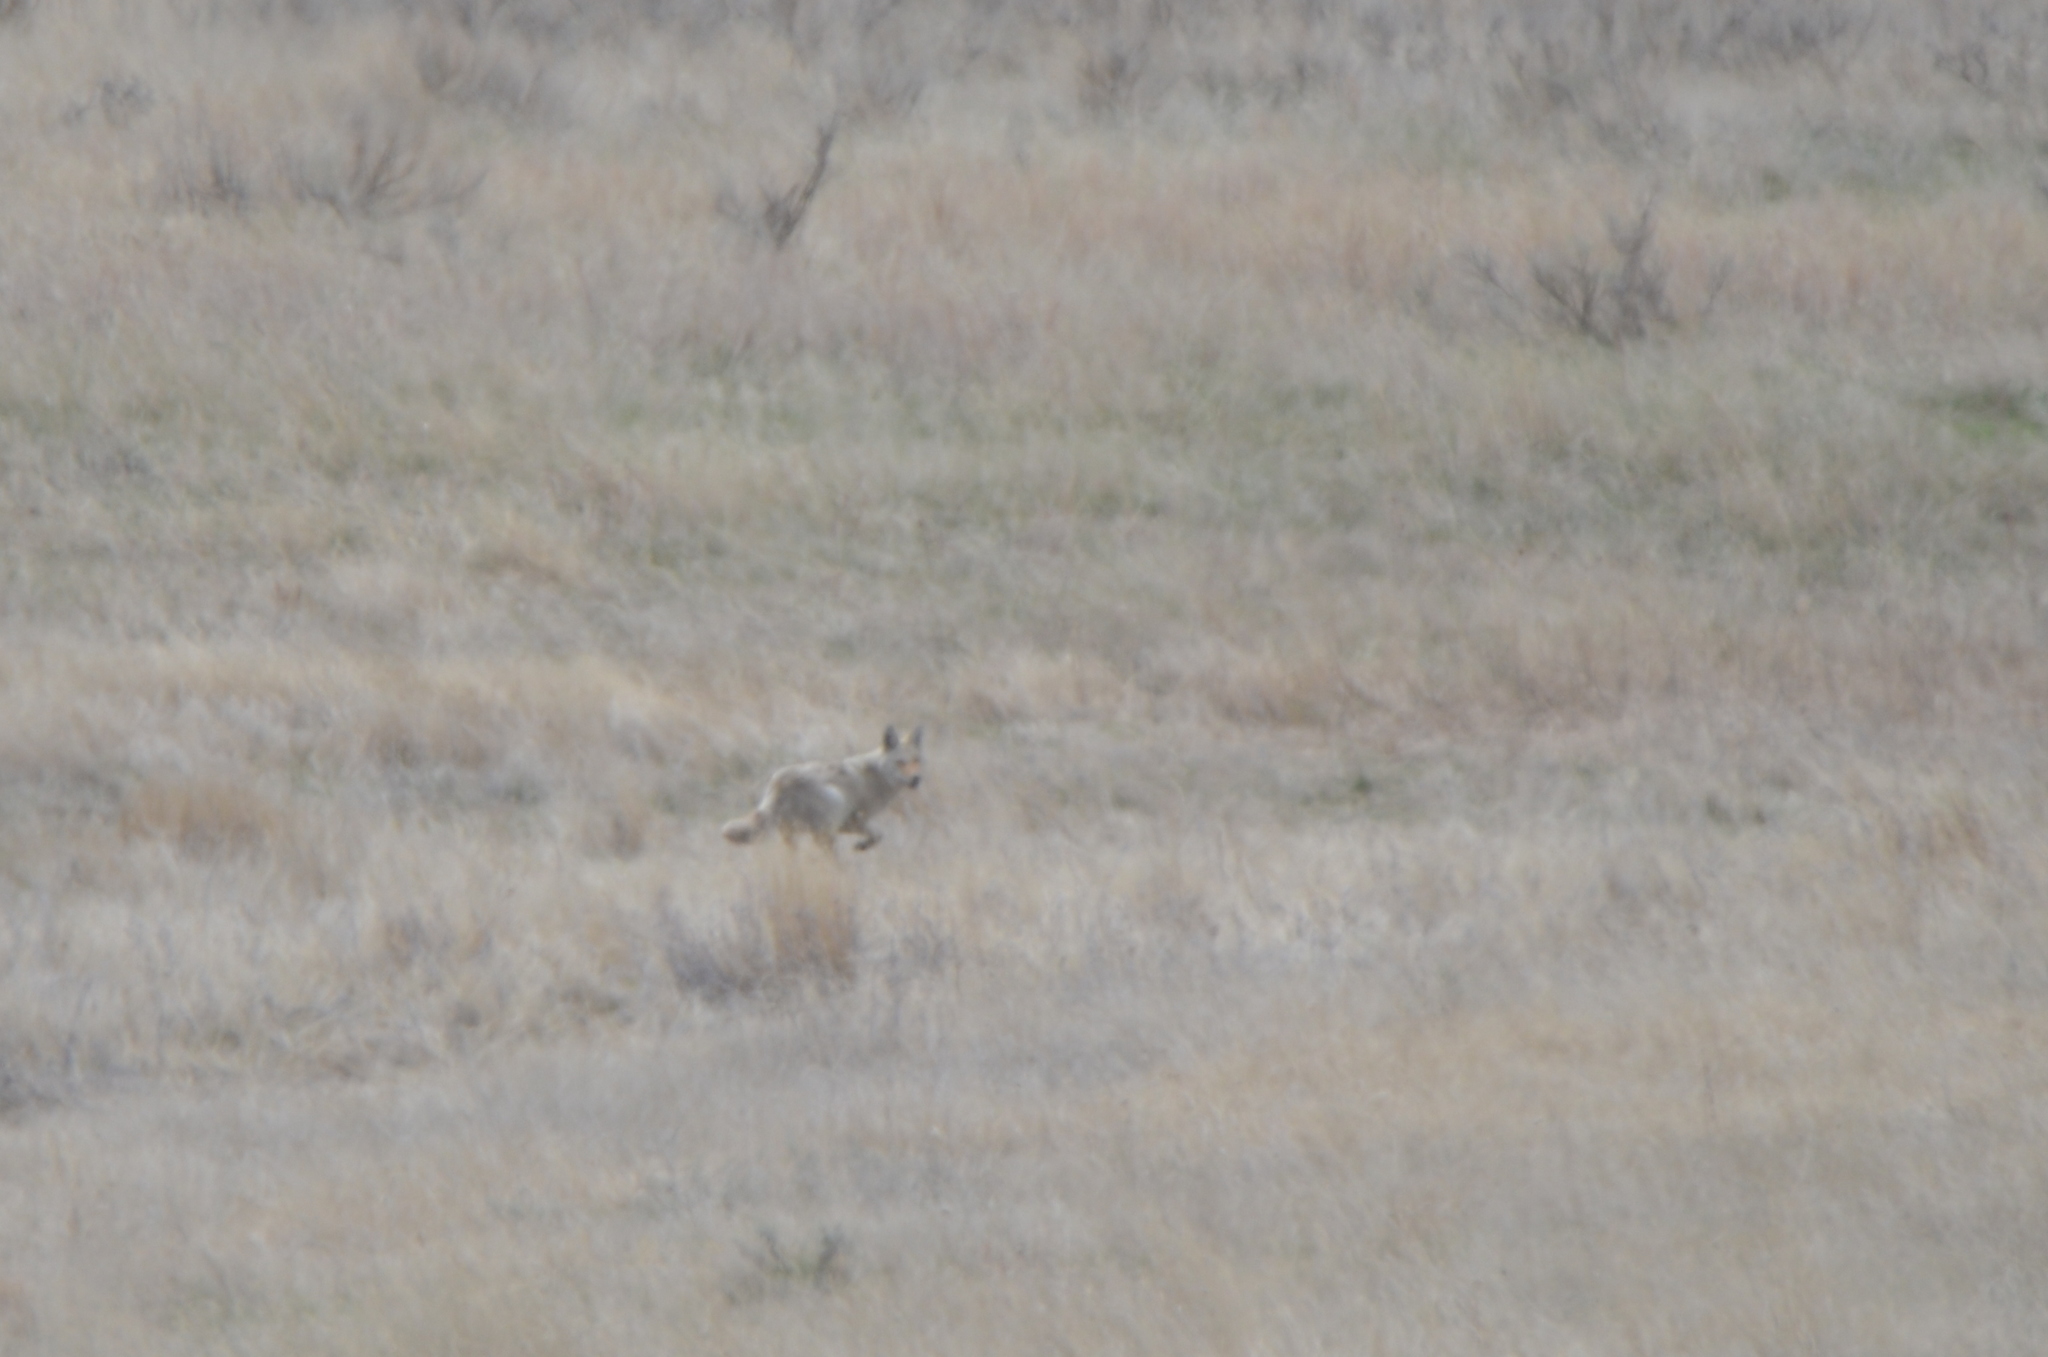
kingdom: Animalia
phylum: Chordata
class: Mammalia
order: Carnivora
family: Canidae
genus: Canis
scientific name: Canis latrans
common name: Coyote
